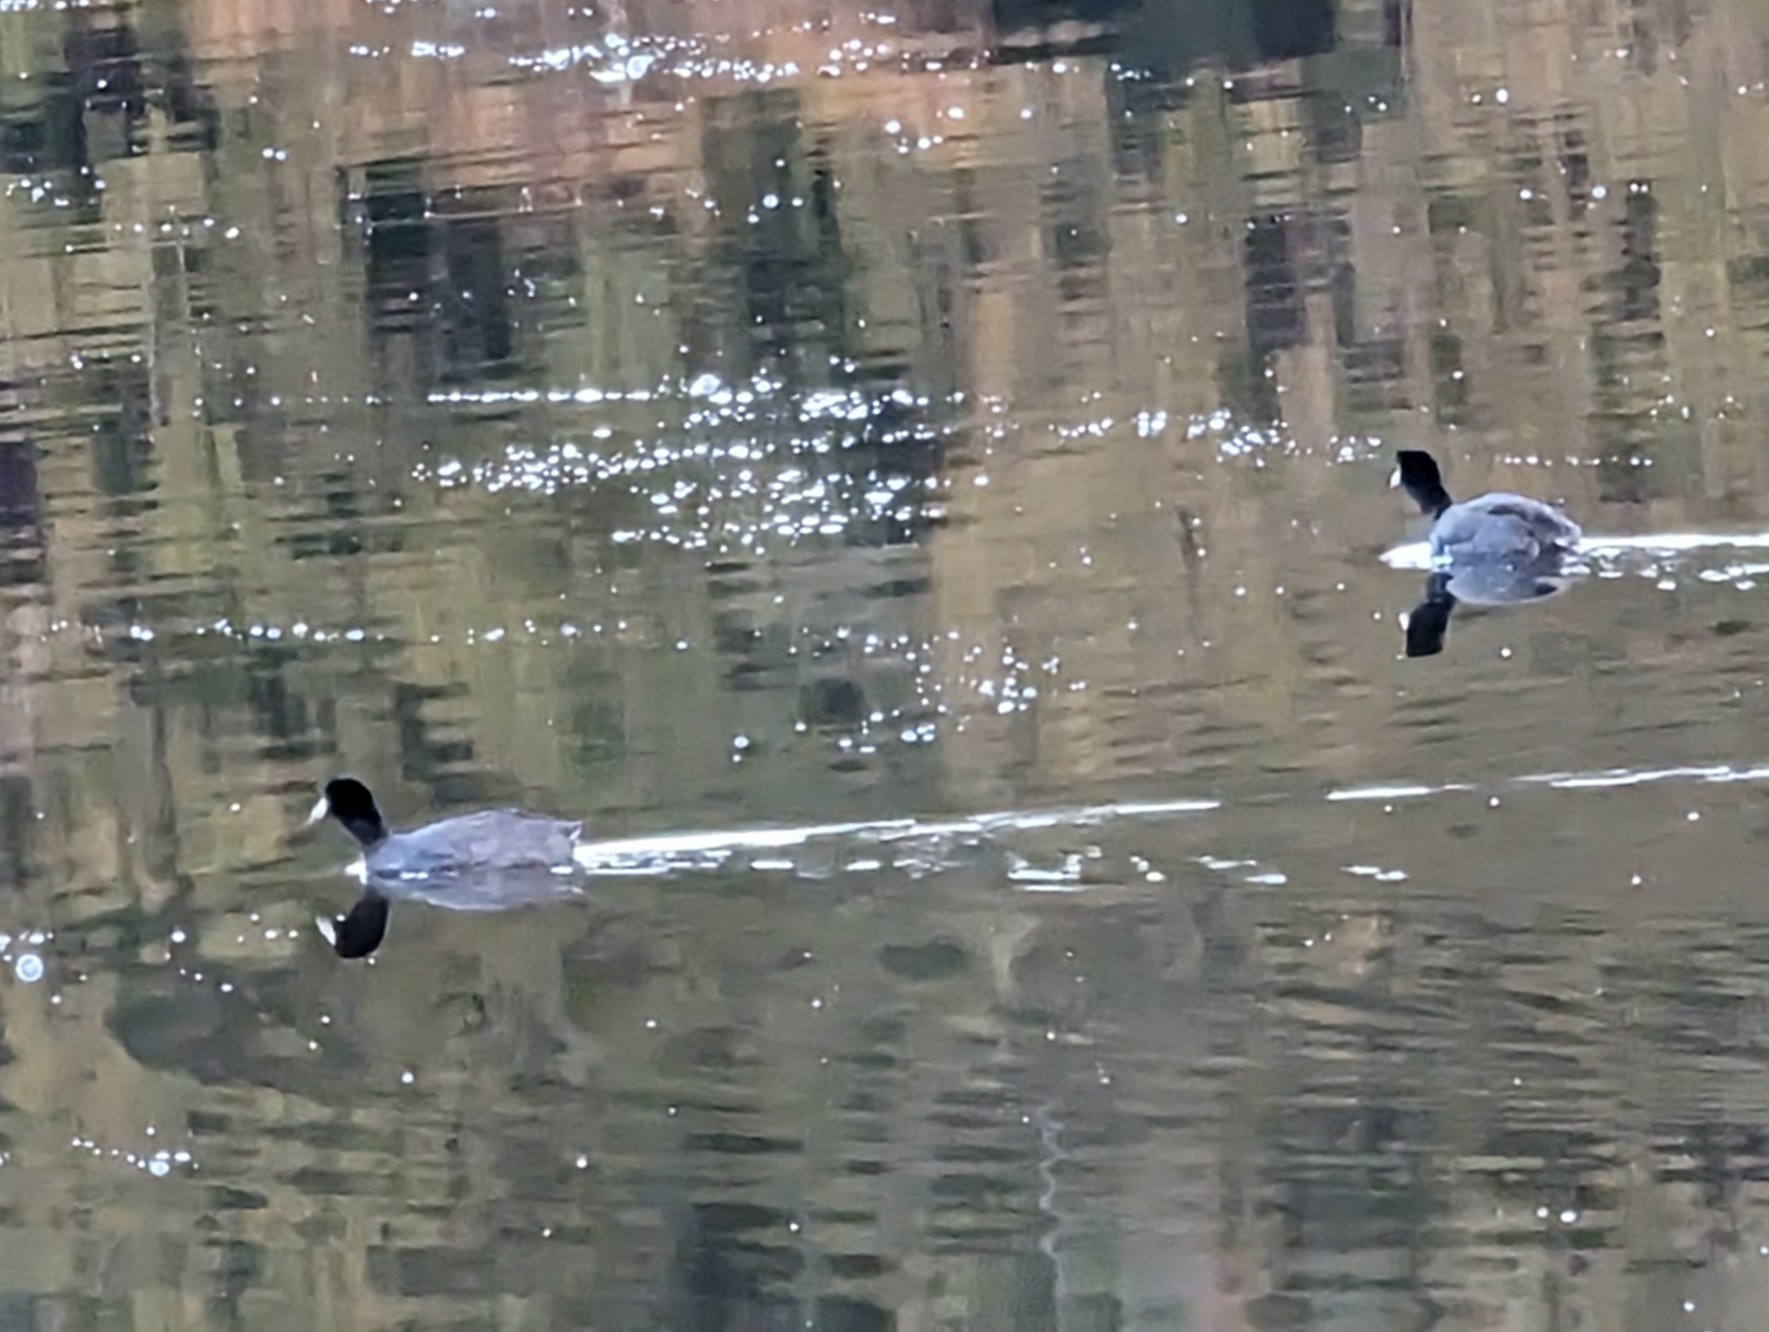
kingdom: Animalia
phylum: Chordata
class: Aves
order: Gruiformes
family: Rallidae
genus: Fulica
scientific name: Fulica americana
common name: American coot
